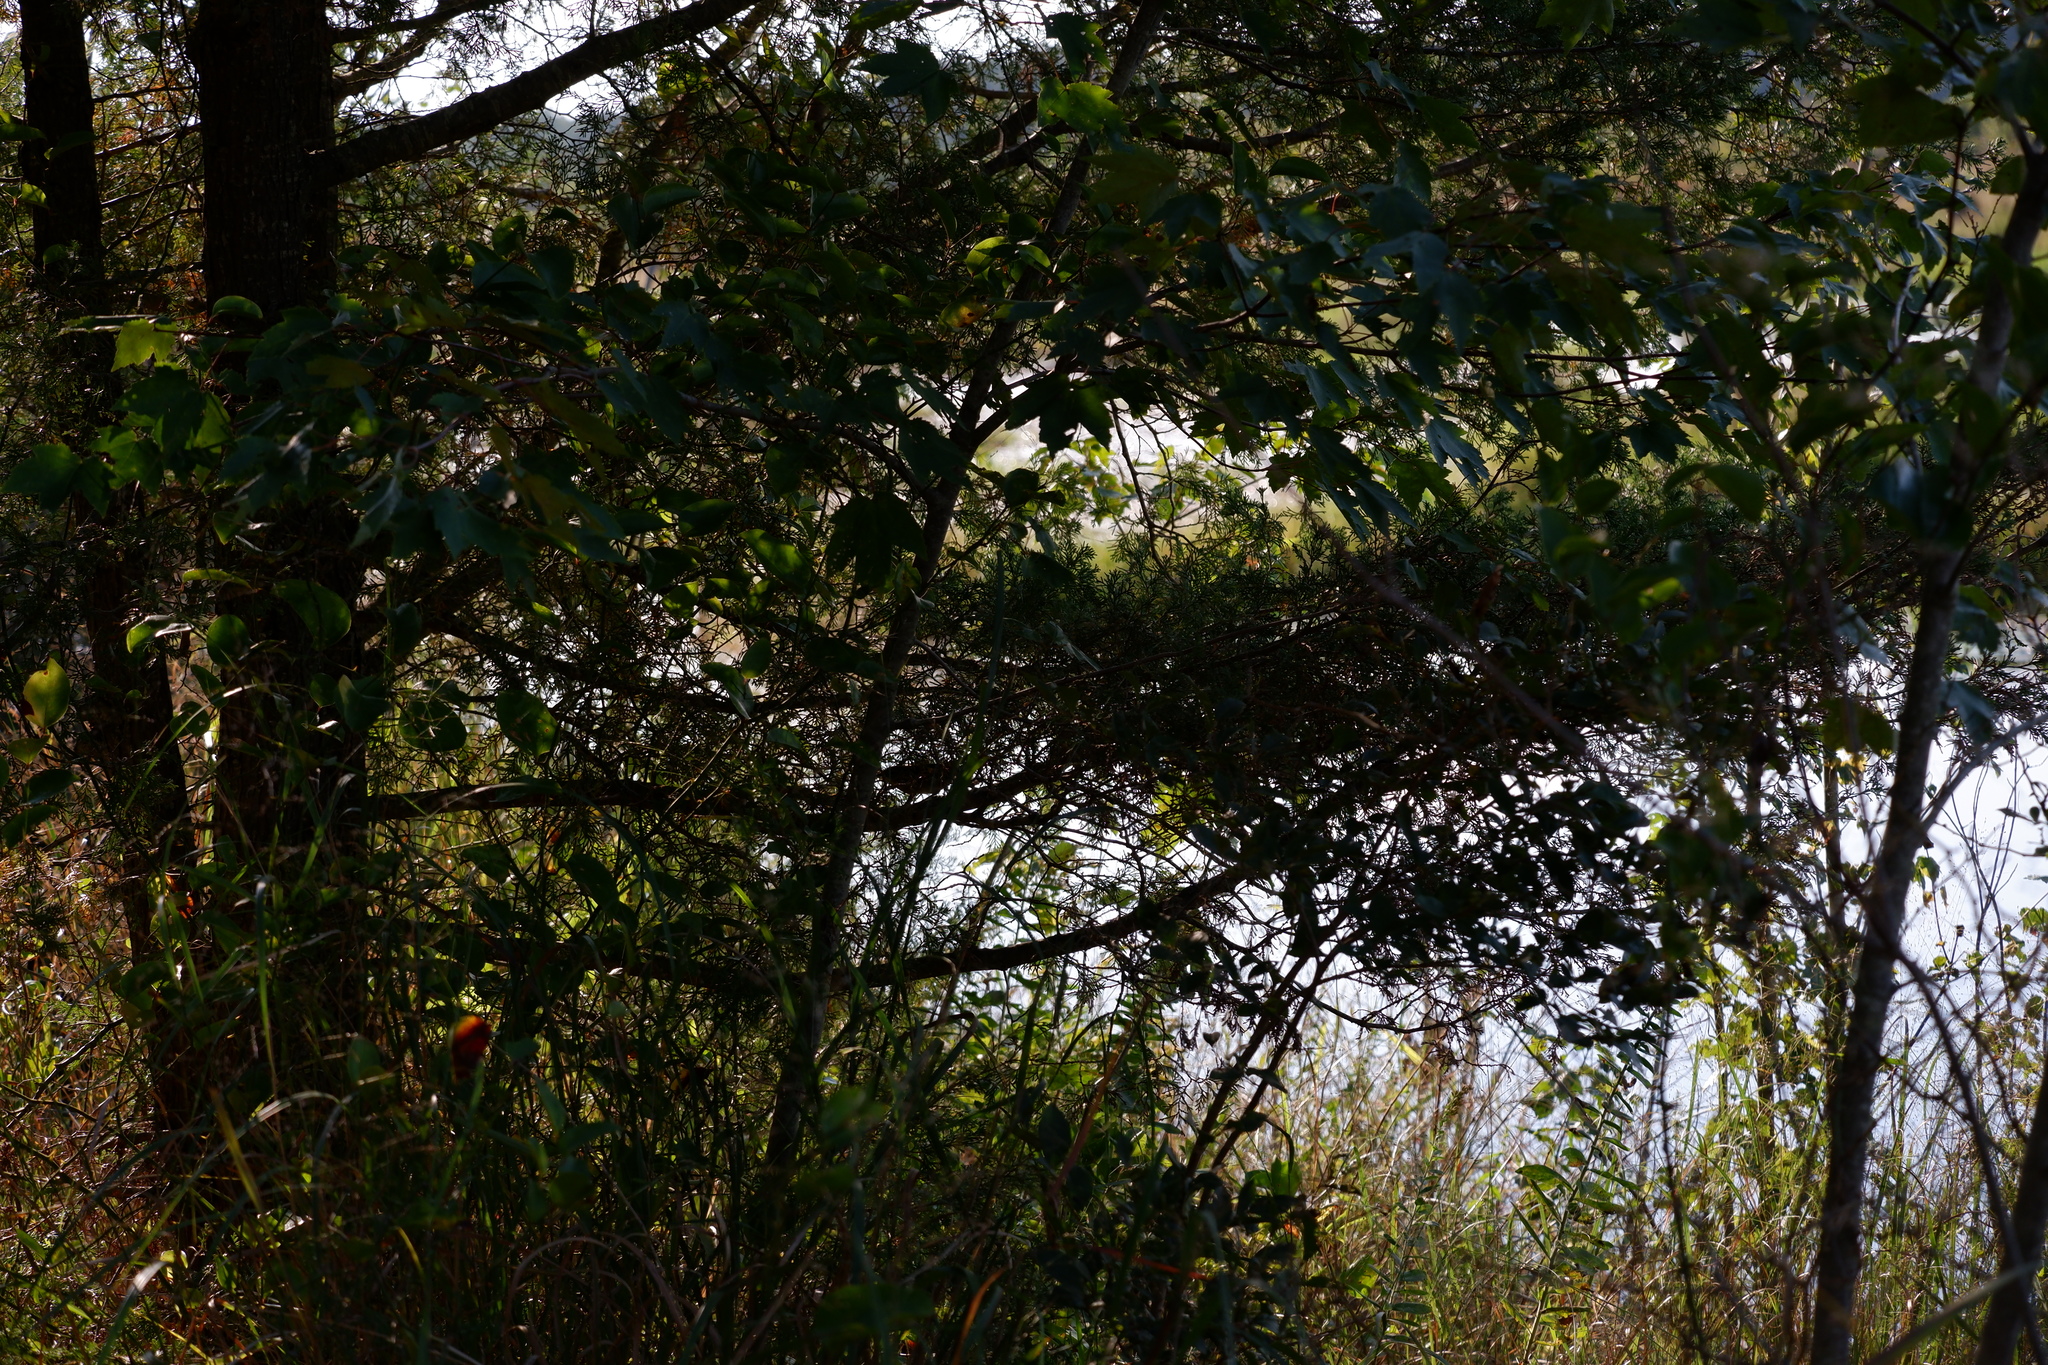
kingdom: Animalia
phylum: Chordata
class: Aves
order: Passeriformes
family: Parulidae
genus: Geothlypis
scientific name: Geothlypis trichas
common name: Common yellowthroat
